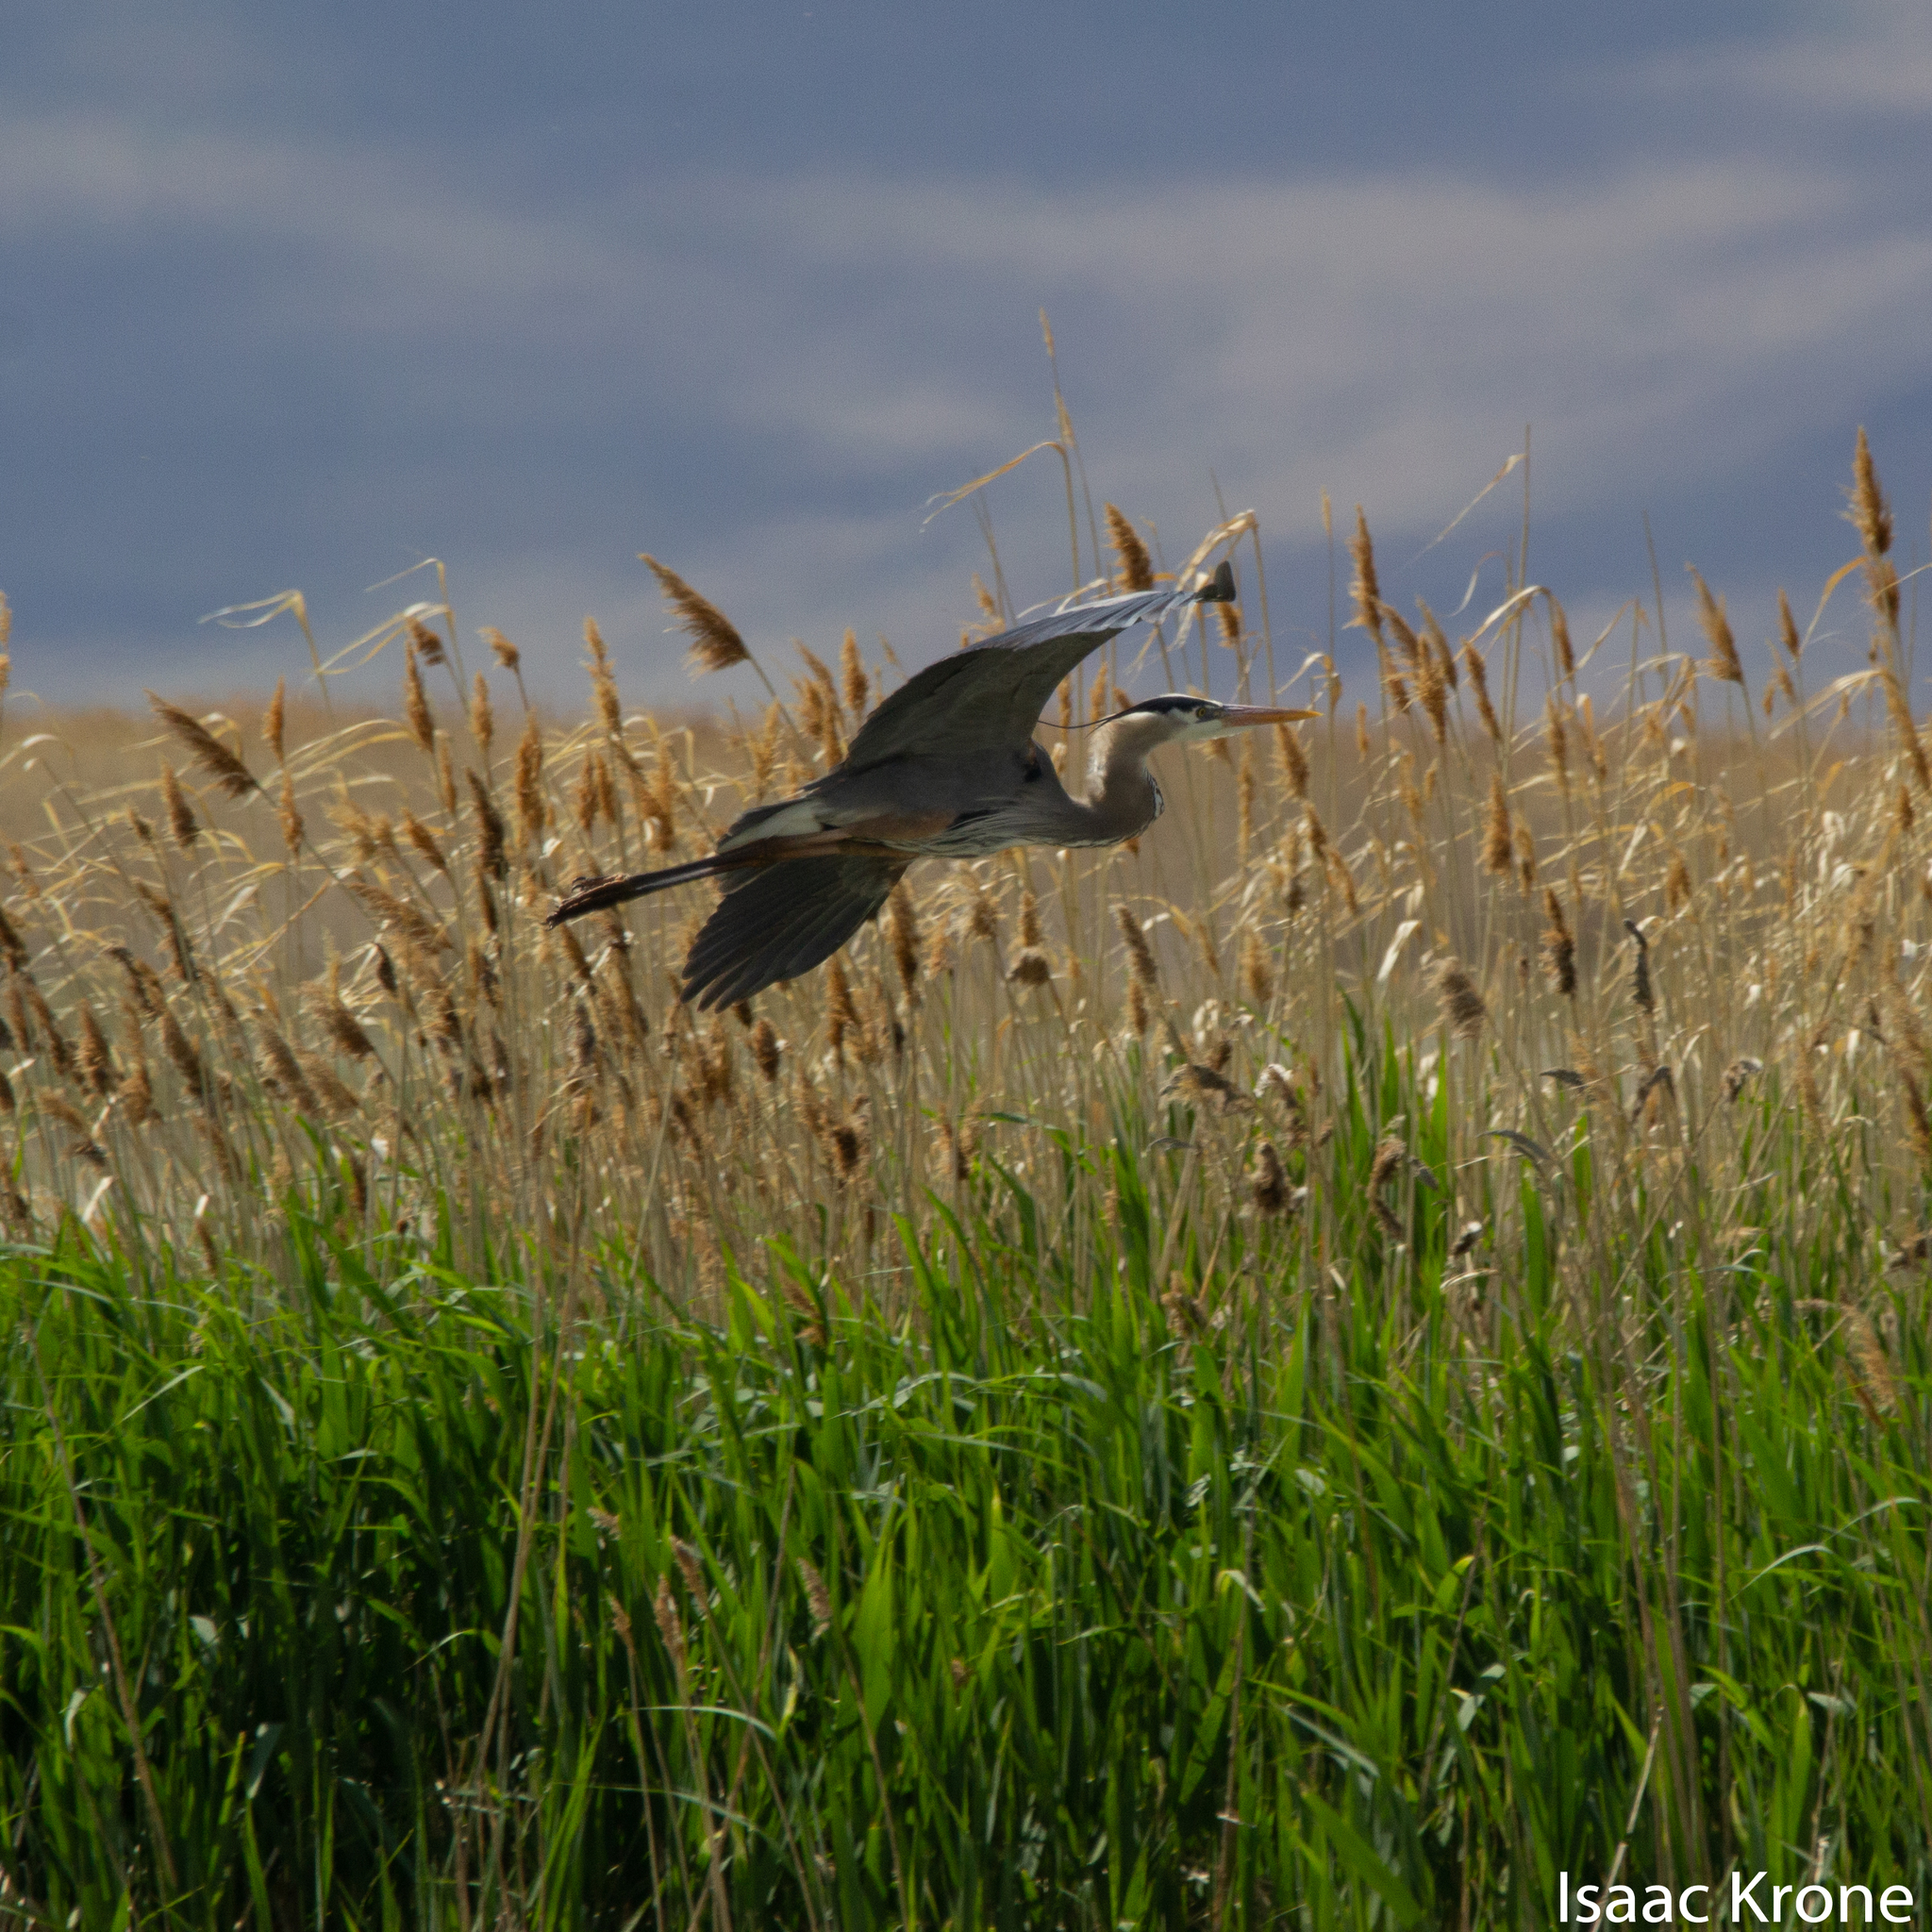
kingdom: Animalia
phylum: Chordata
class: Aves
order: Pelecaniformes
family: Ardeidae
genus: Ardea
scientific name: Ardea herodias
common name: Great blue heron
